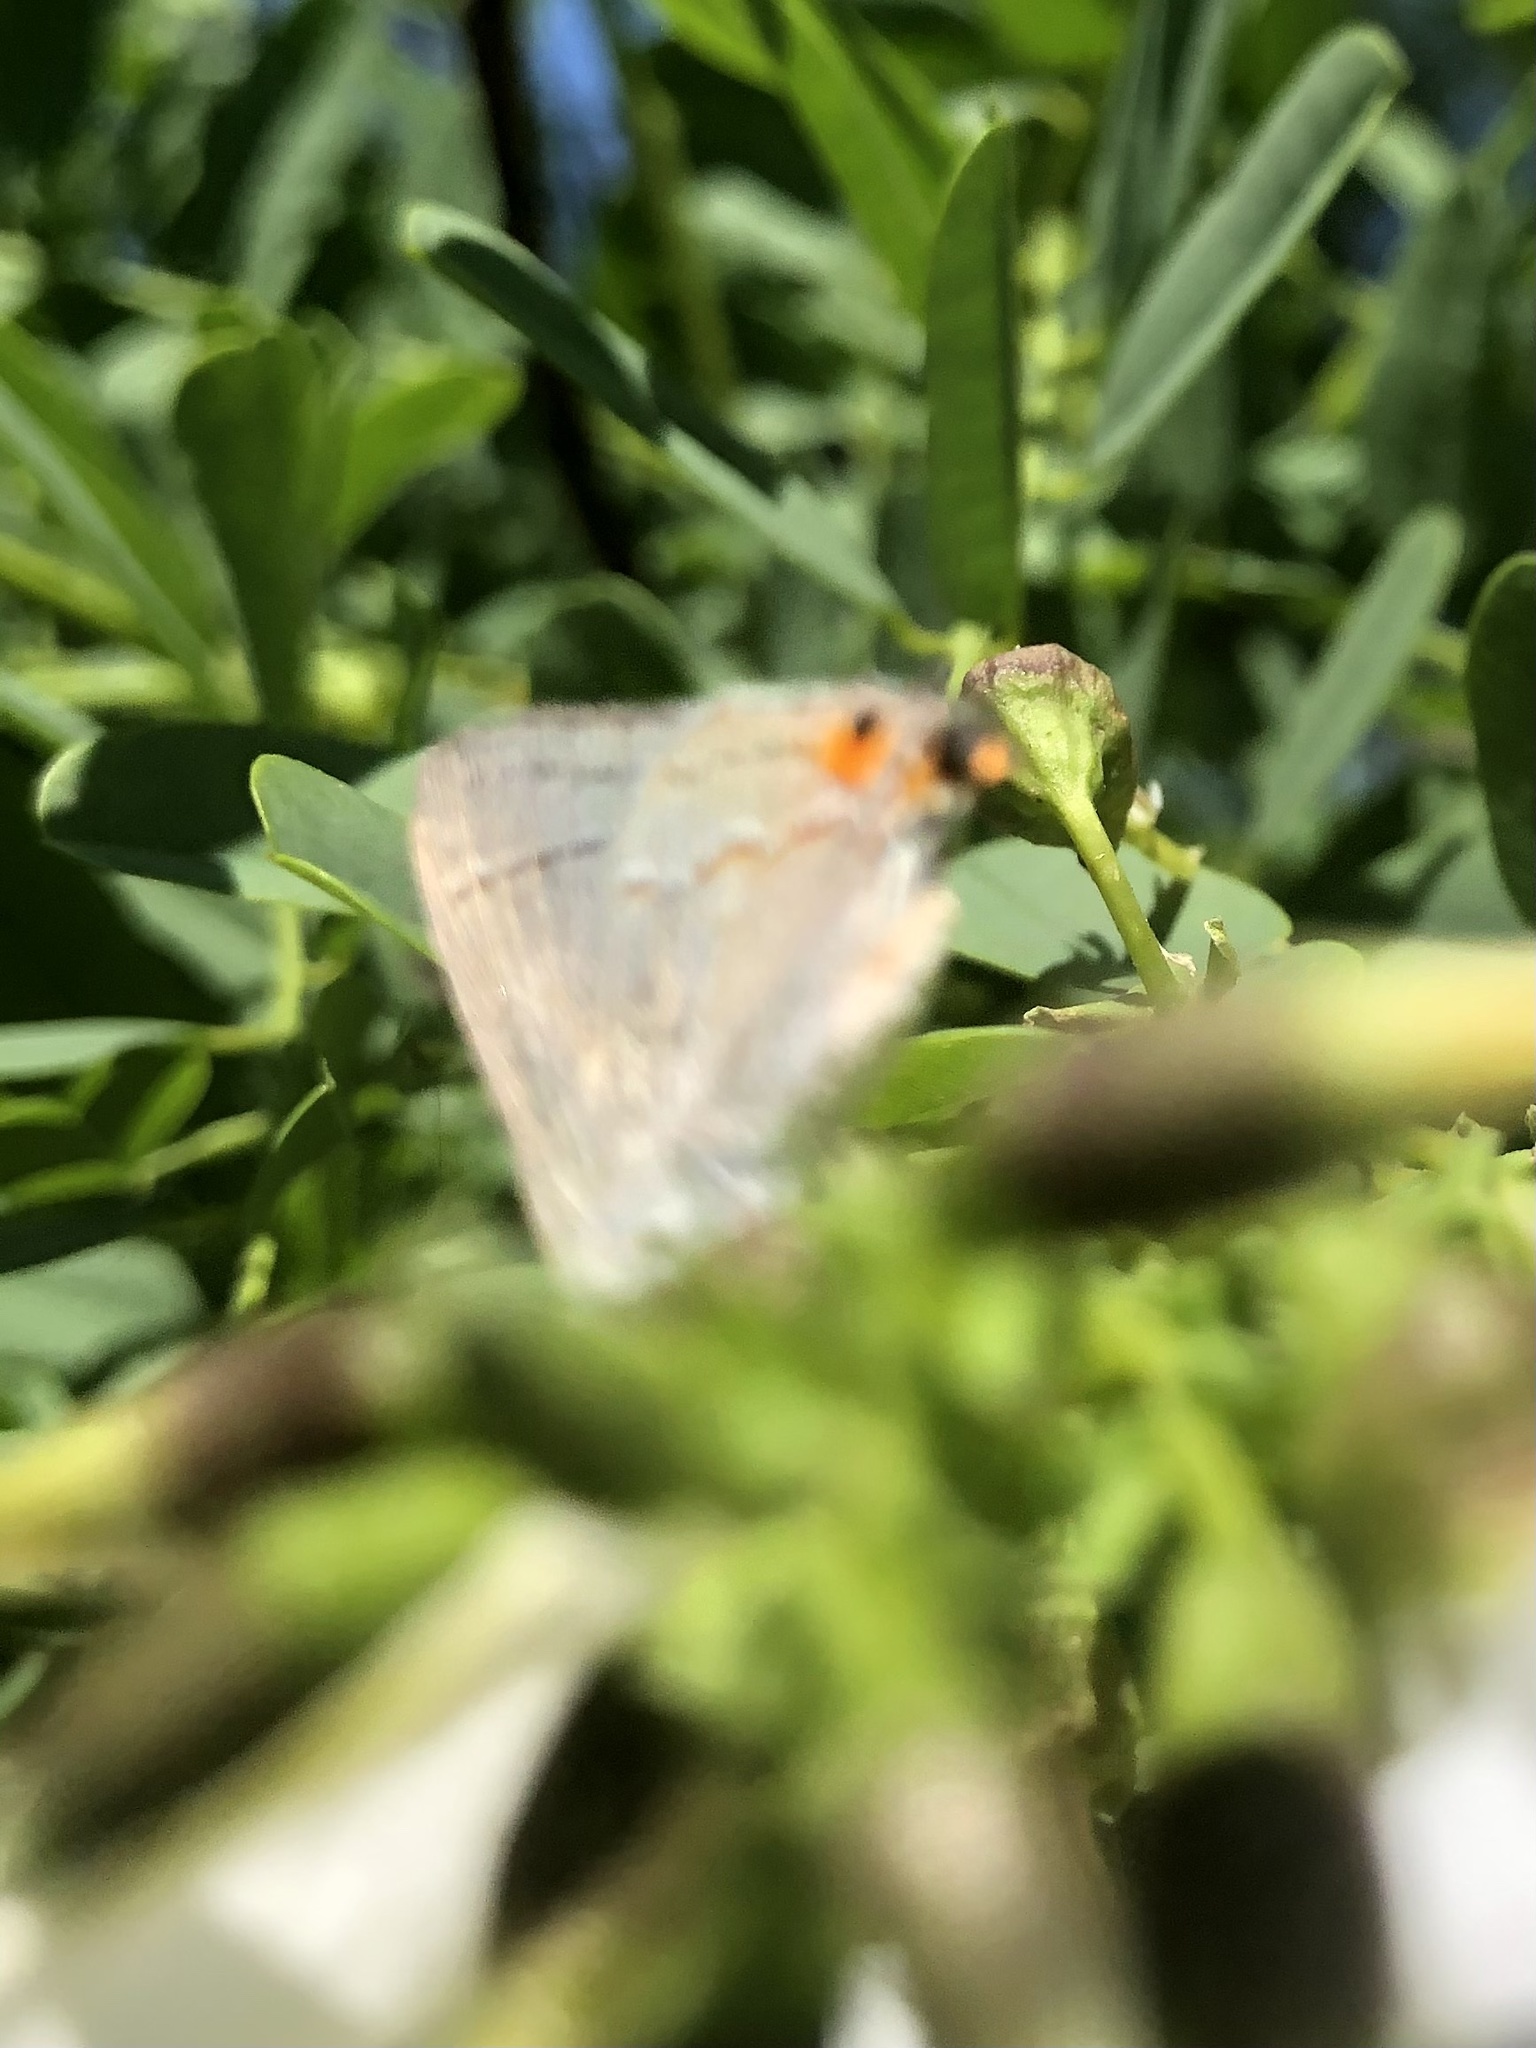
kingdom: Animalia
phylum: Arthropoda
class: Insecta
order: Lepidoptera
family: Lycaenidae
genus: Strymon
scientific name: Strymon melinus
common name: Gray hairstreak
